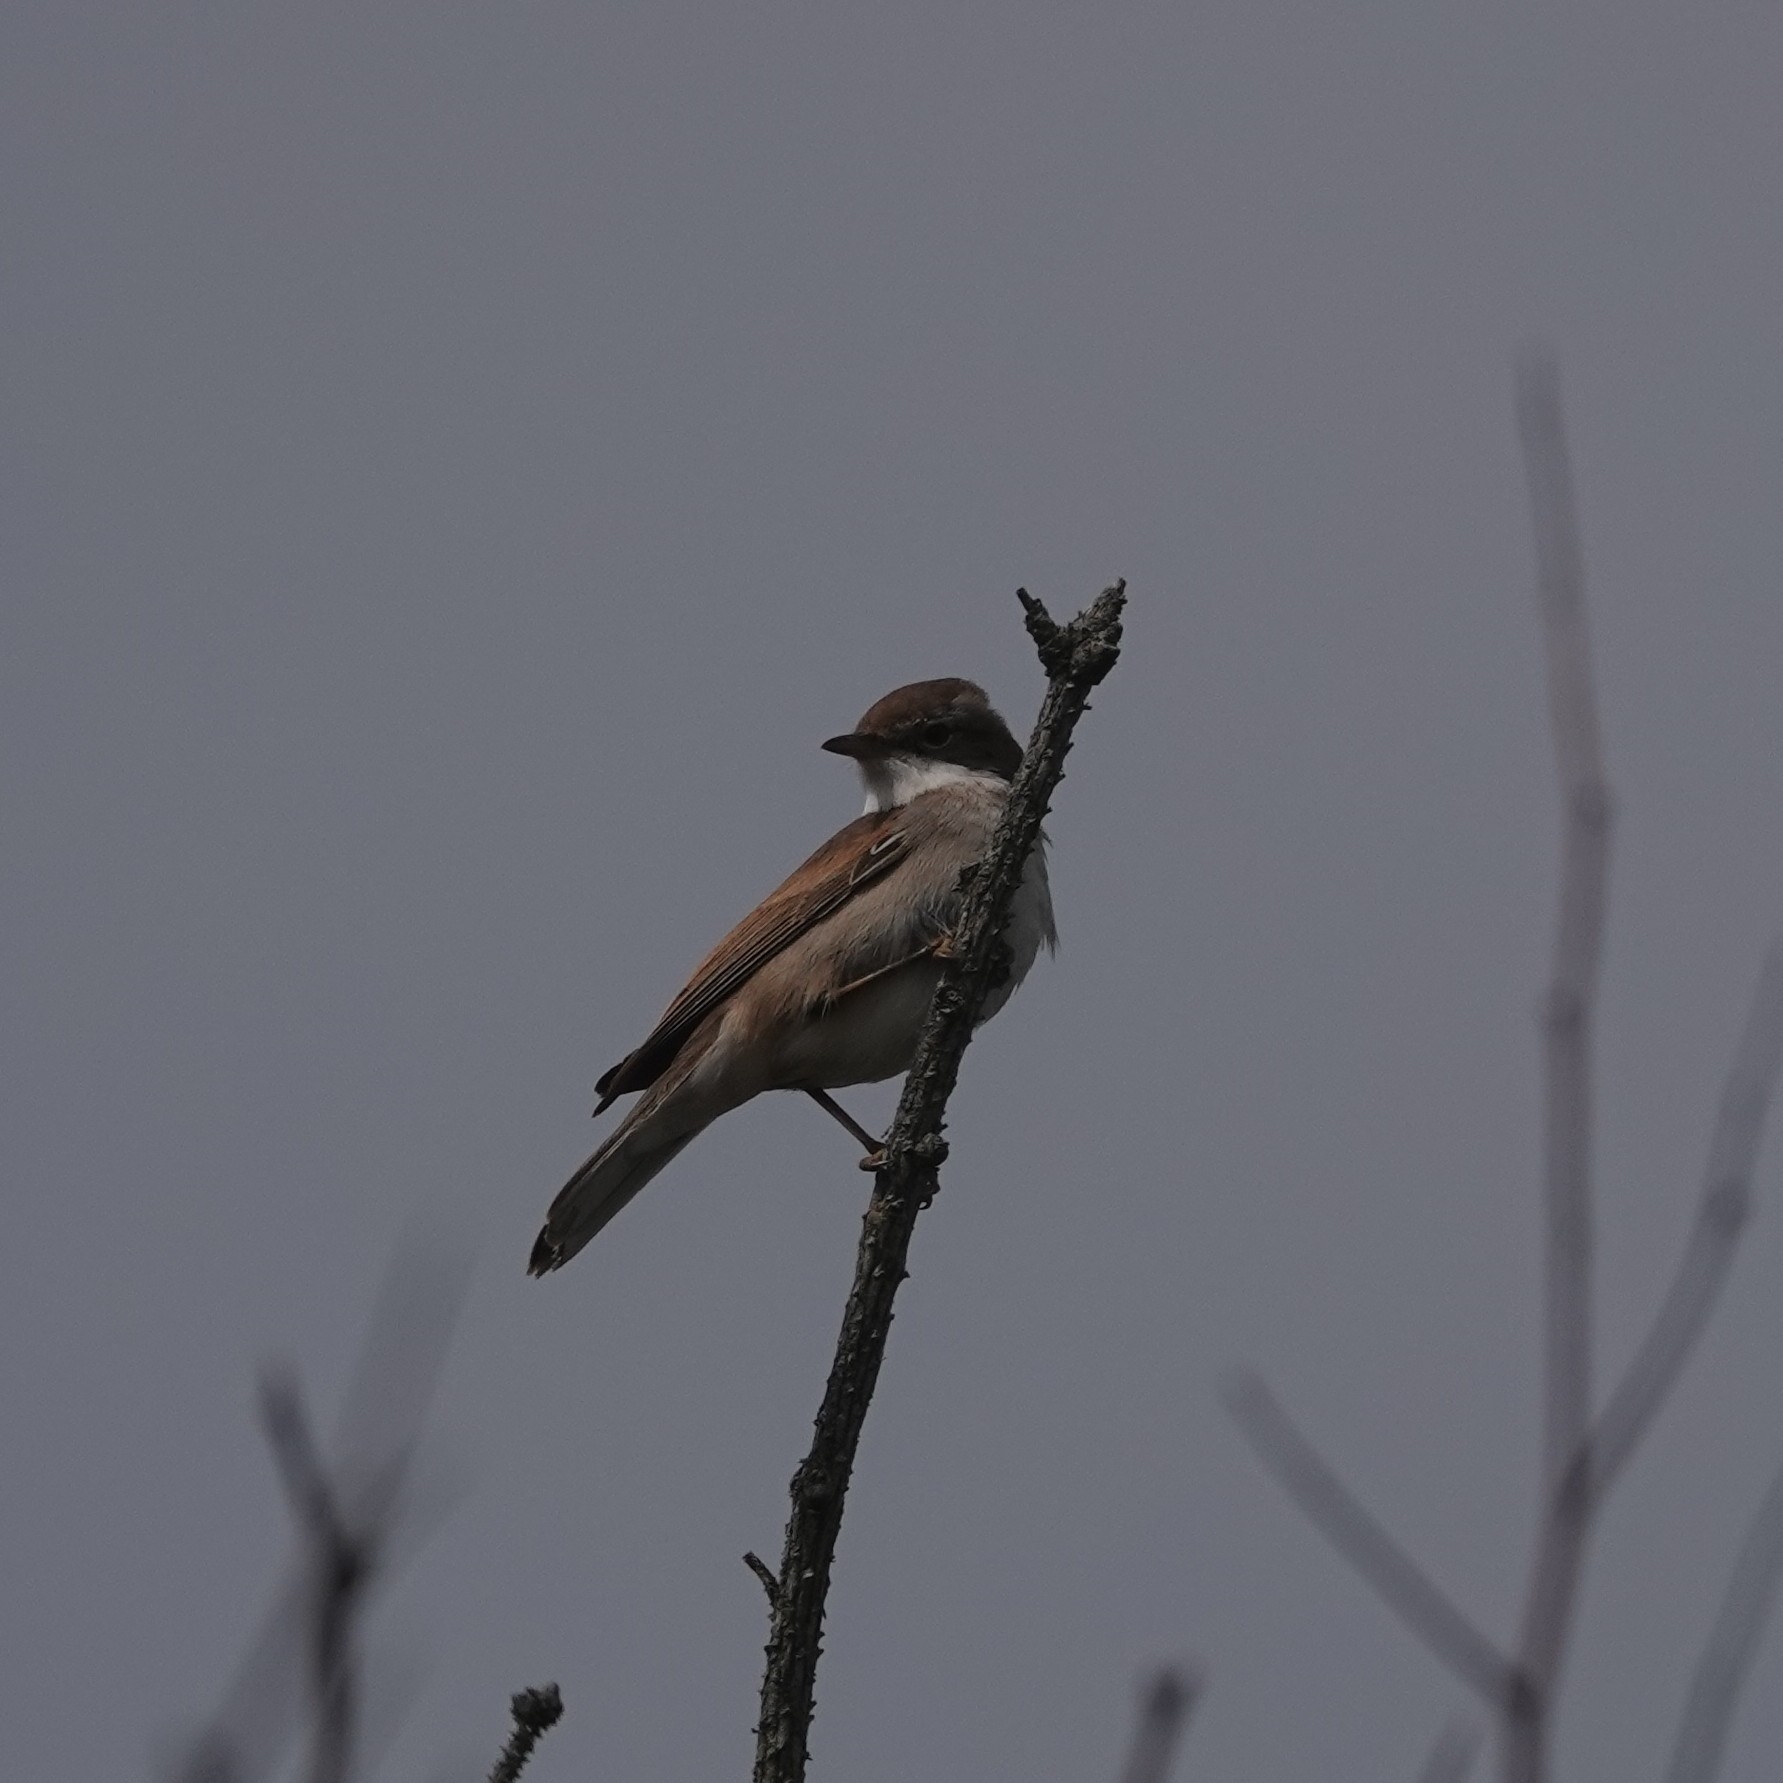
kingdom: Animalia
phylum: Chordata
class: Aves
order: Passeriformes
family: Sylviidae
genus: Sylvia
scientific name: Sylvia communis
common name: Common whitethroat
